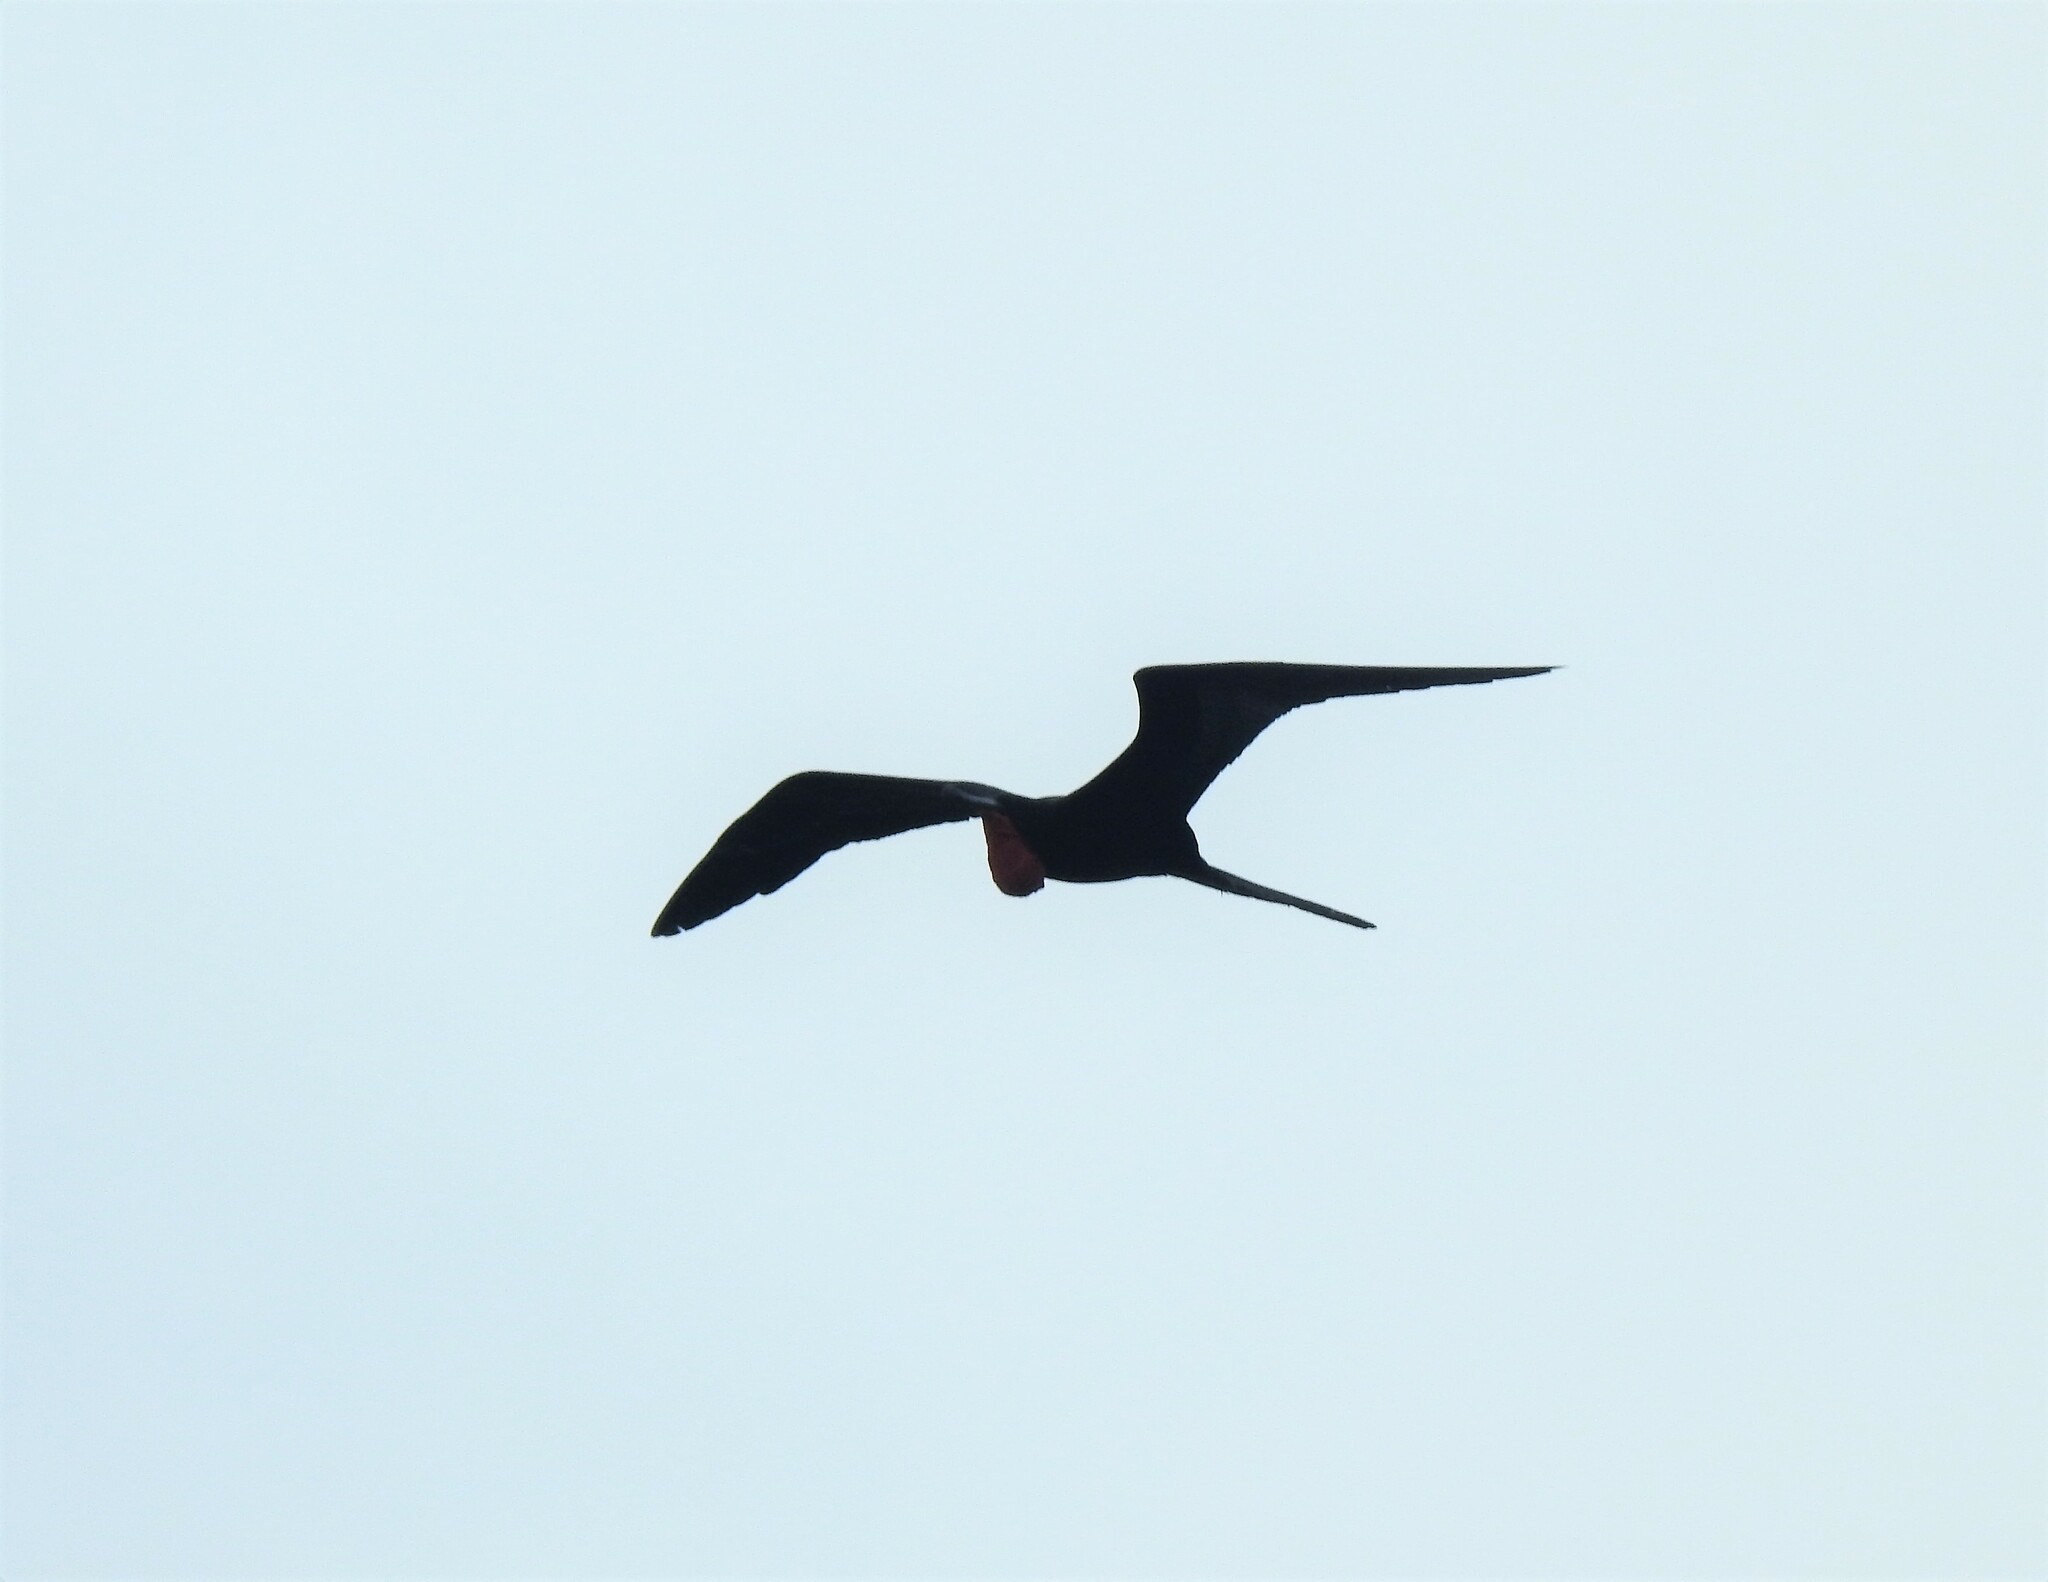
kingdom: Animalia
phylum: Chordata
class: Aves
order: Suliformes
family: Fregatidae
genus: Fregata
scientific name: Fregata magnificens
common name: Magnificent frigatebird
